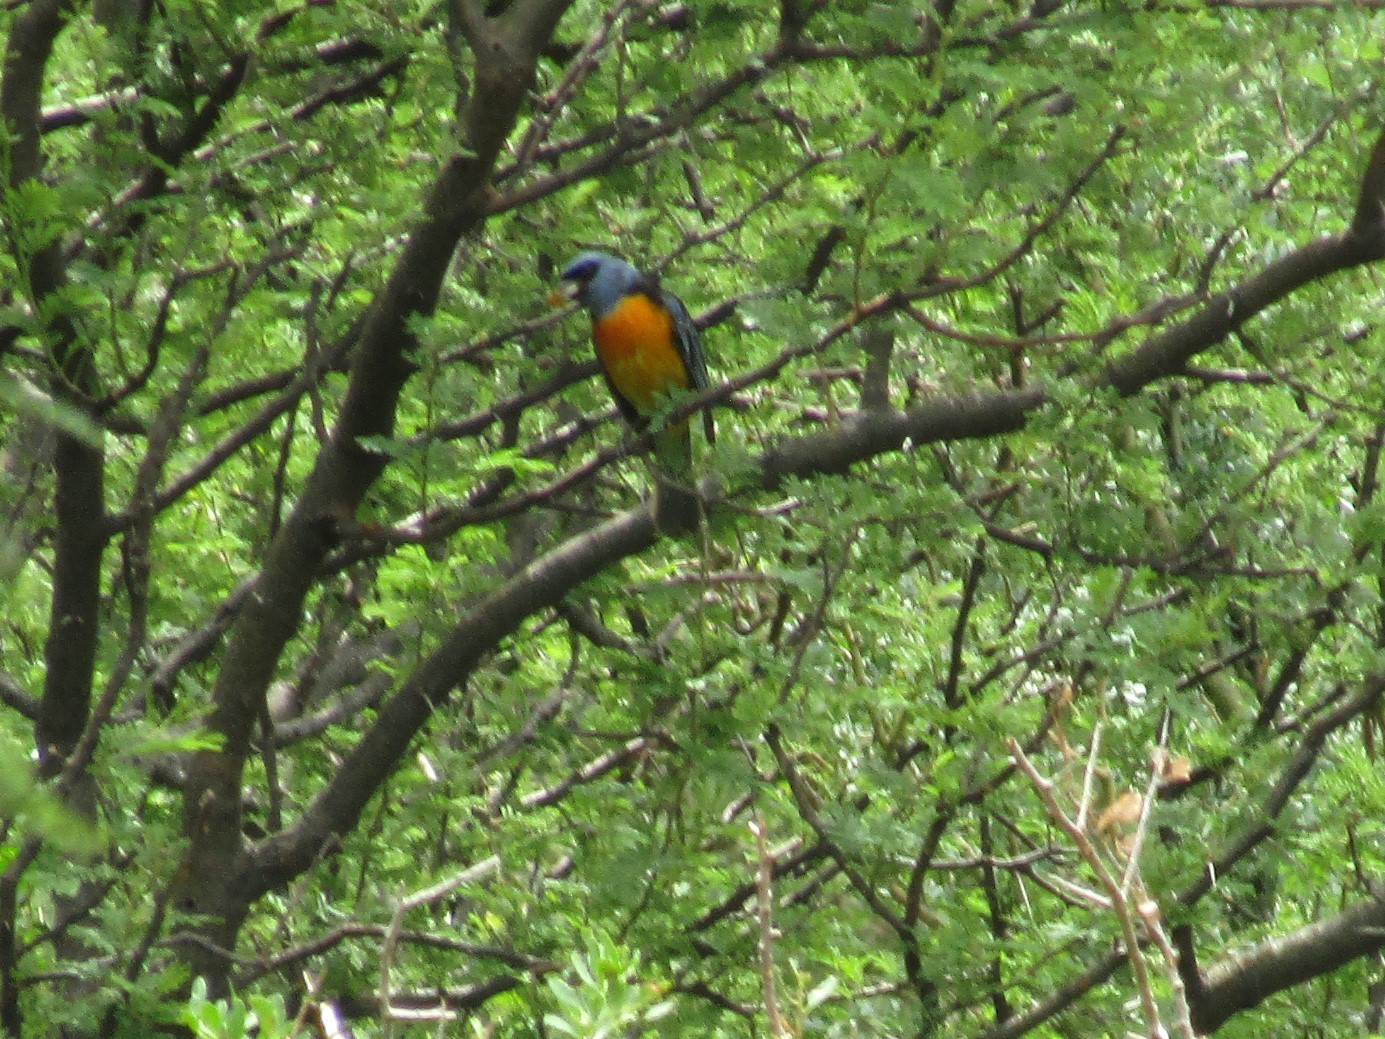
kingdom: Animalia
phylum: Chordata
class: Aves
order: Passeriformes
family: Thraupidae
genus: Rauenia
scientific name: Rauenia bonariensis
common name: Blue-and-yellow tanager
